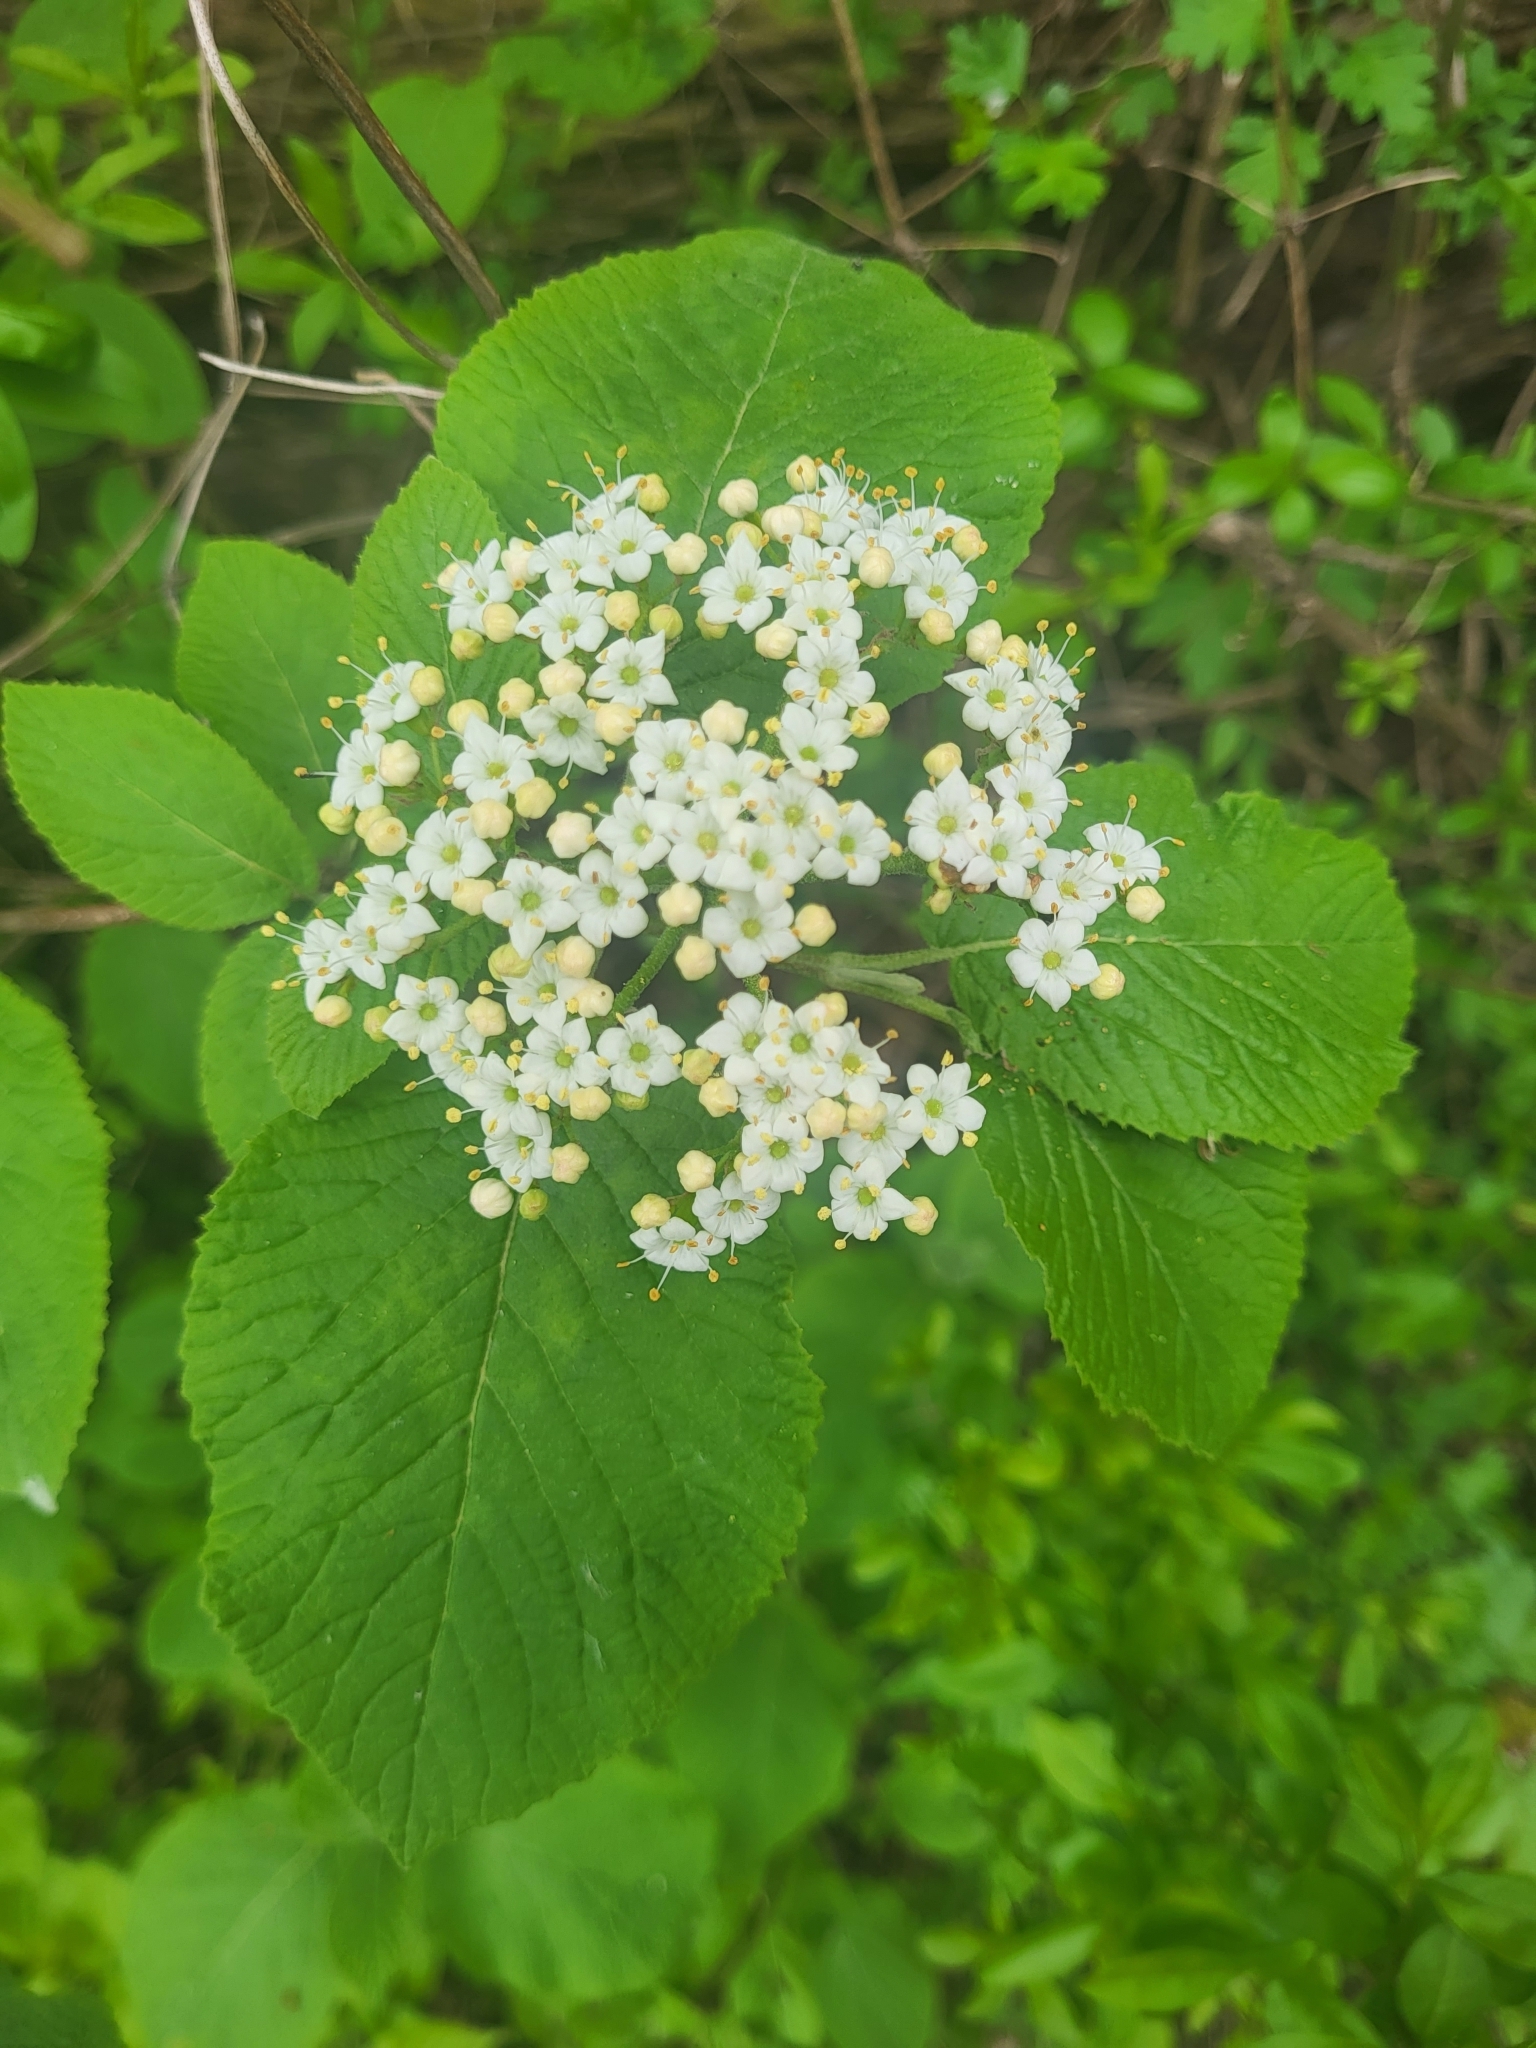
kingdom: Plantae
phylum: Tracheophyta
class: Magnoliopsida
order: Dipsacales
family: Viburnaceae
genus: Viburnum
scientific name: Viburnum lantana
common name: Wayfaring tree
